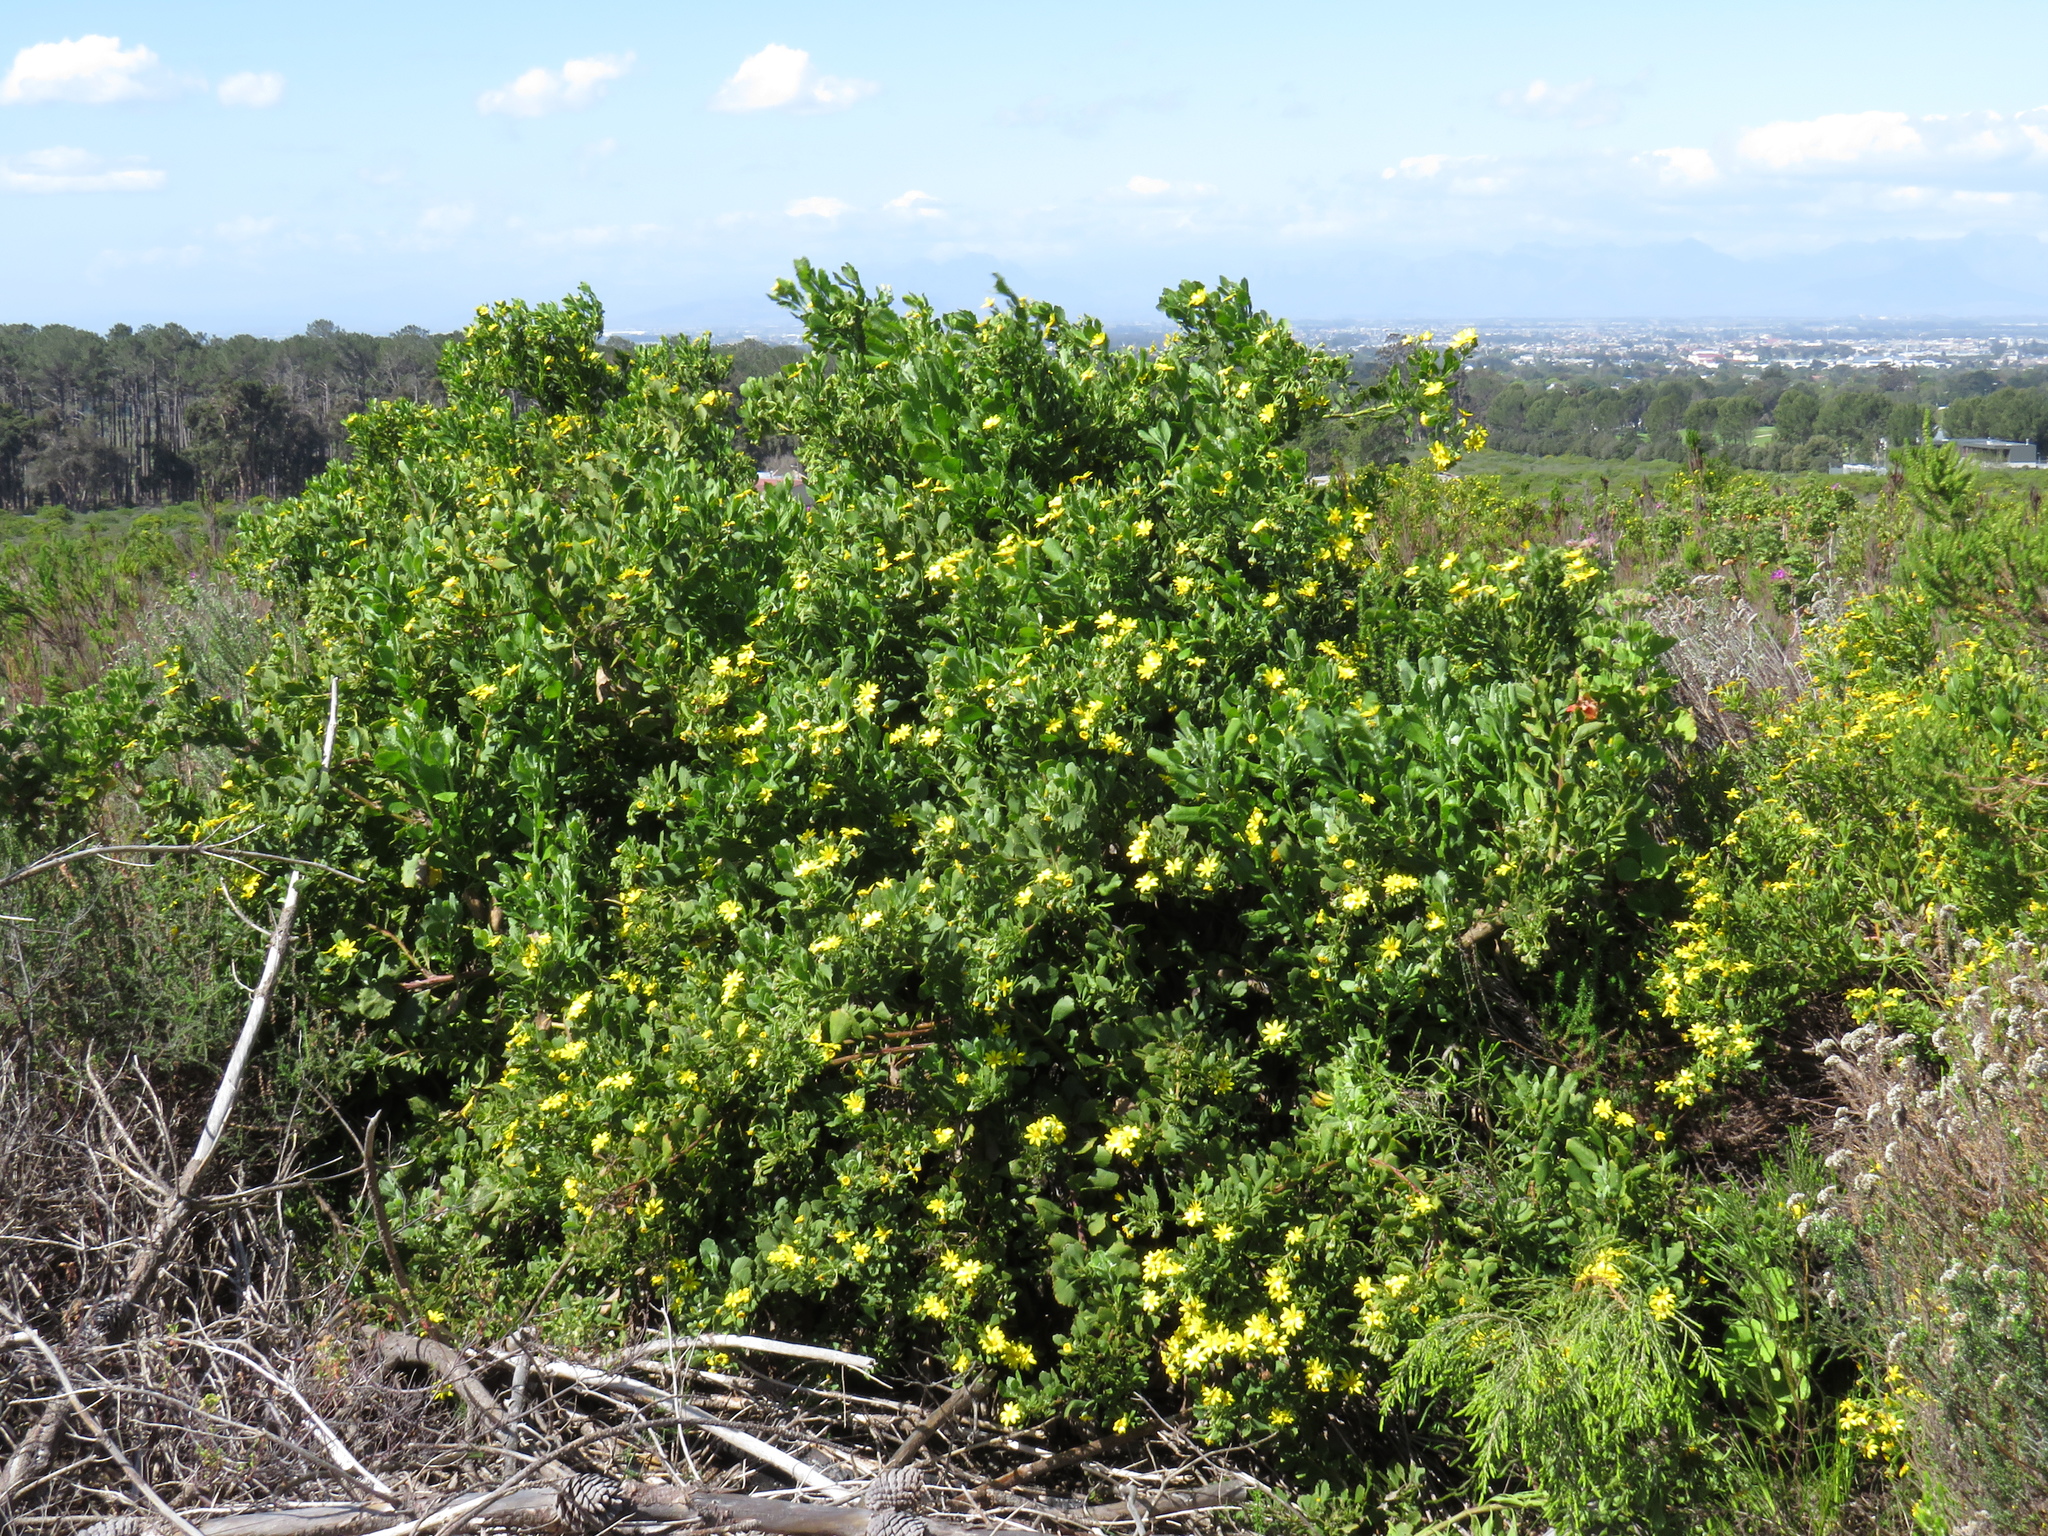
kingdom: Plantae
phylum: Tracheophyta
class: Magnoliopsida
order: Asterales
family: Asteraceae
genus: Osteospermum
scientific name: Osteospermum moniliferum
